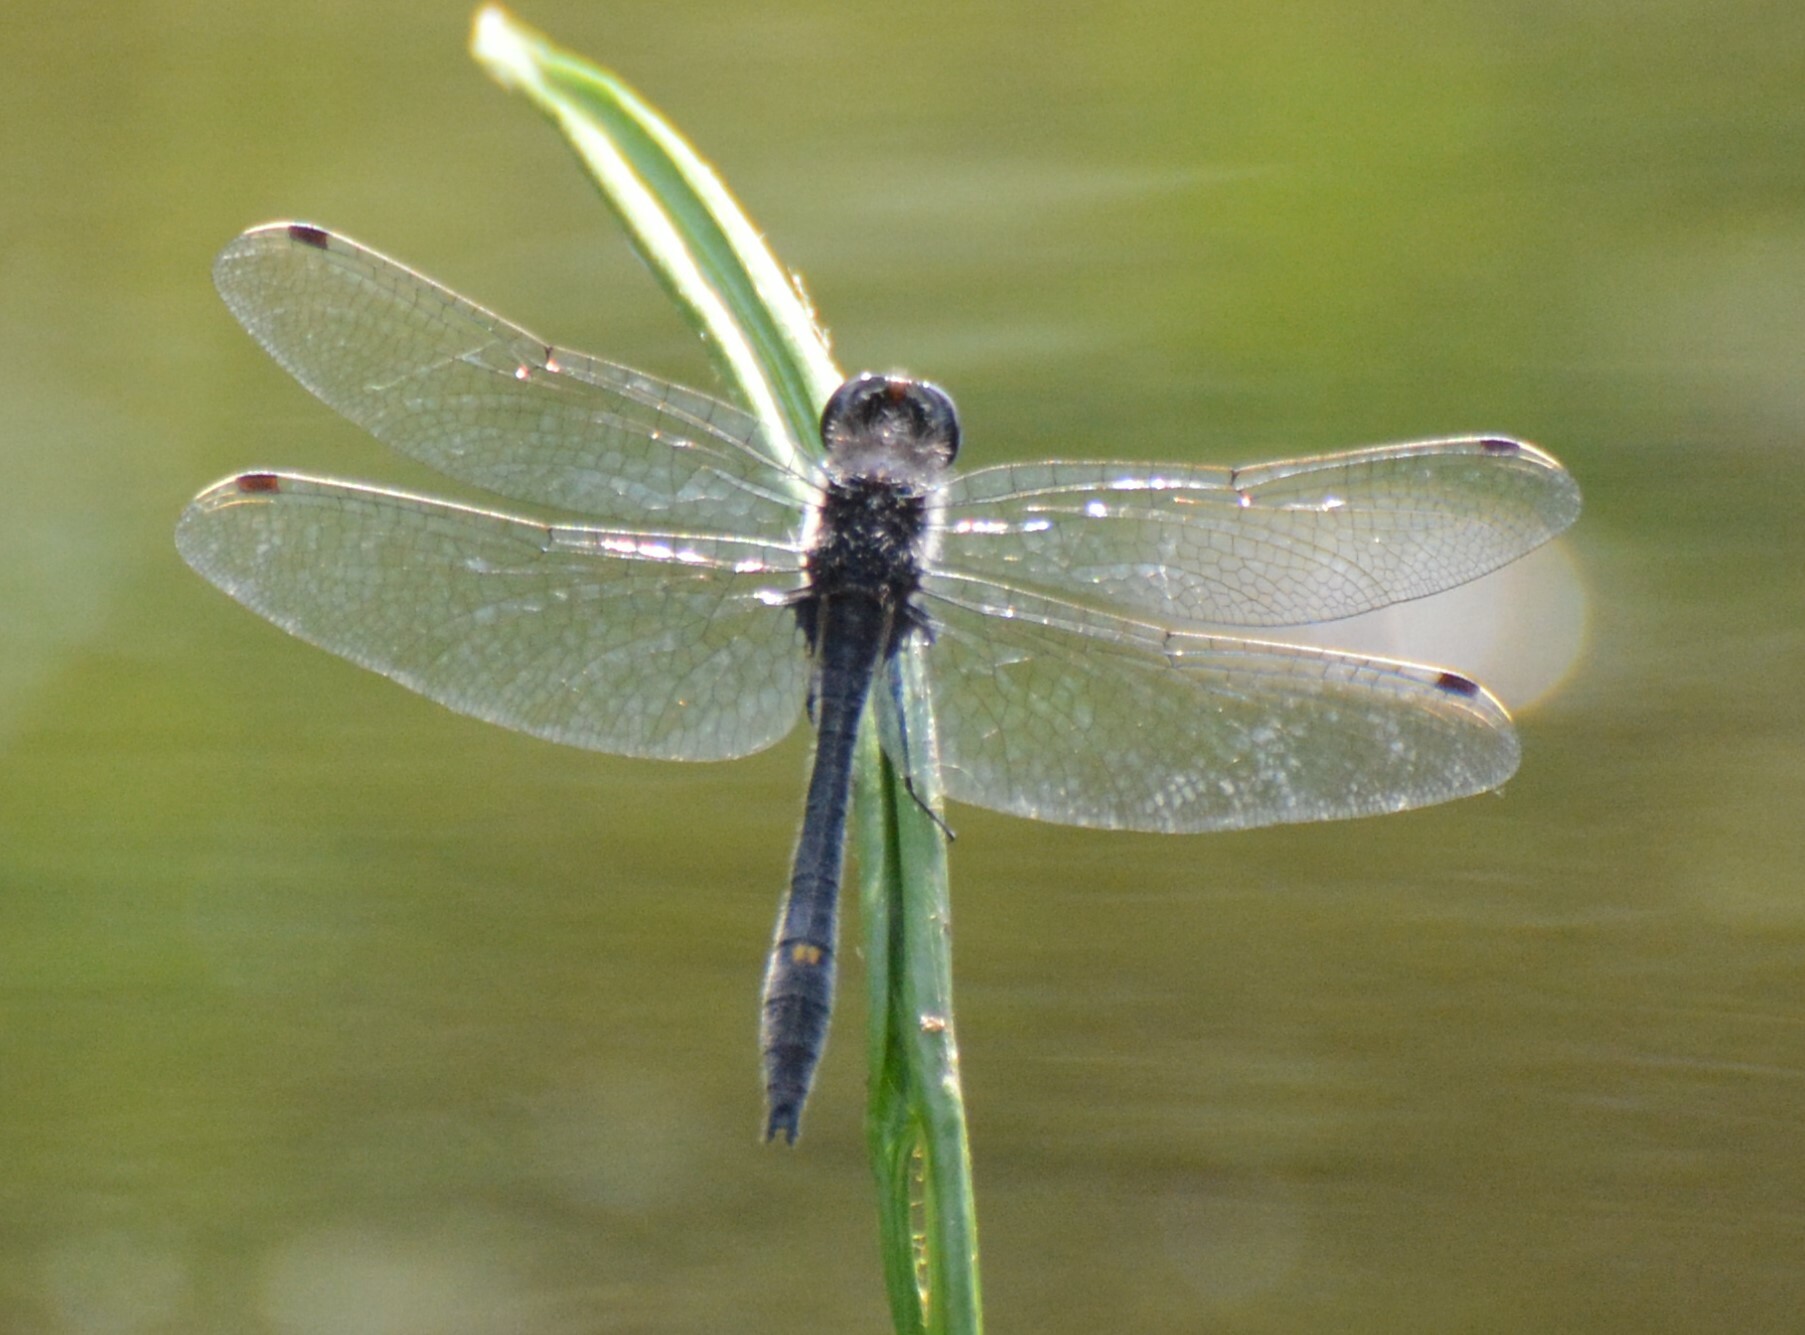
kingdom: Animalia
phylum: Arthropoda
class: Insecta
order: Odonata
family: Libellulidae
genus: Leucorrhinia
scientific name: Leucorrhinia intacta
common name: Dot-tailed whiteface
